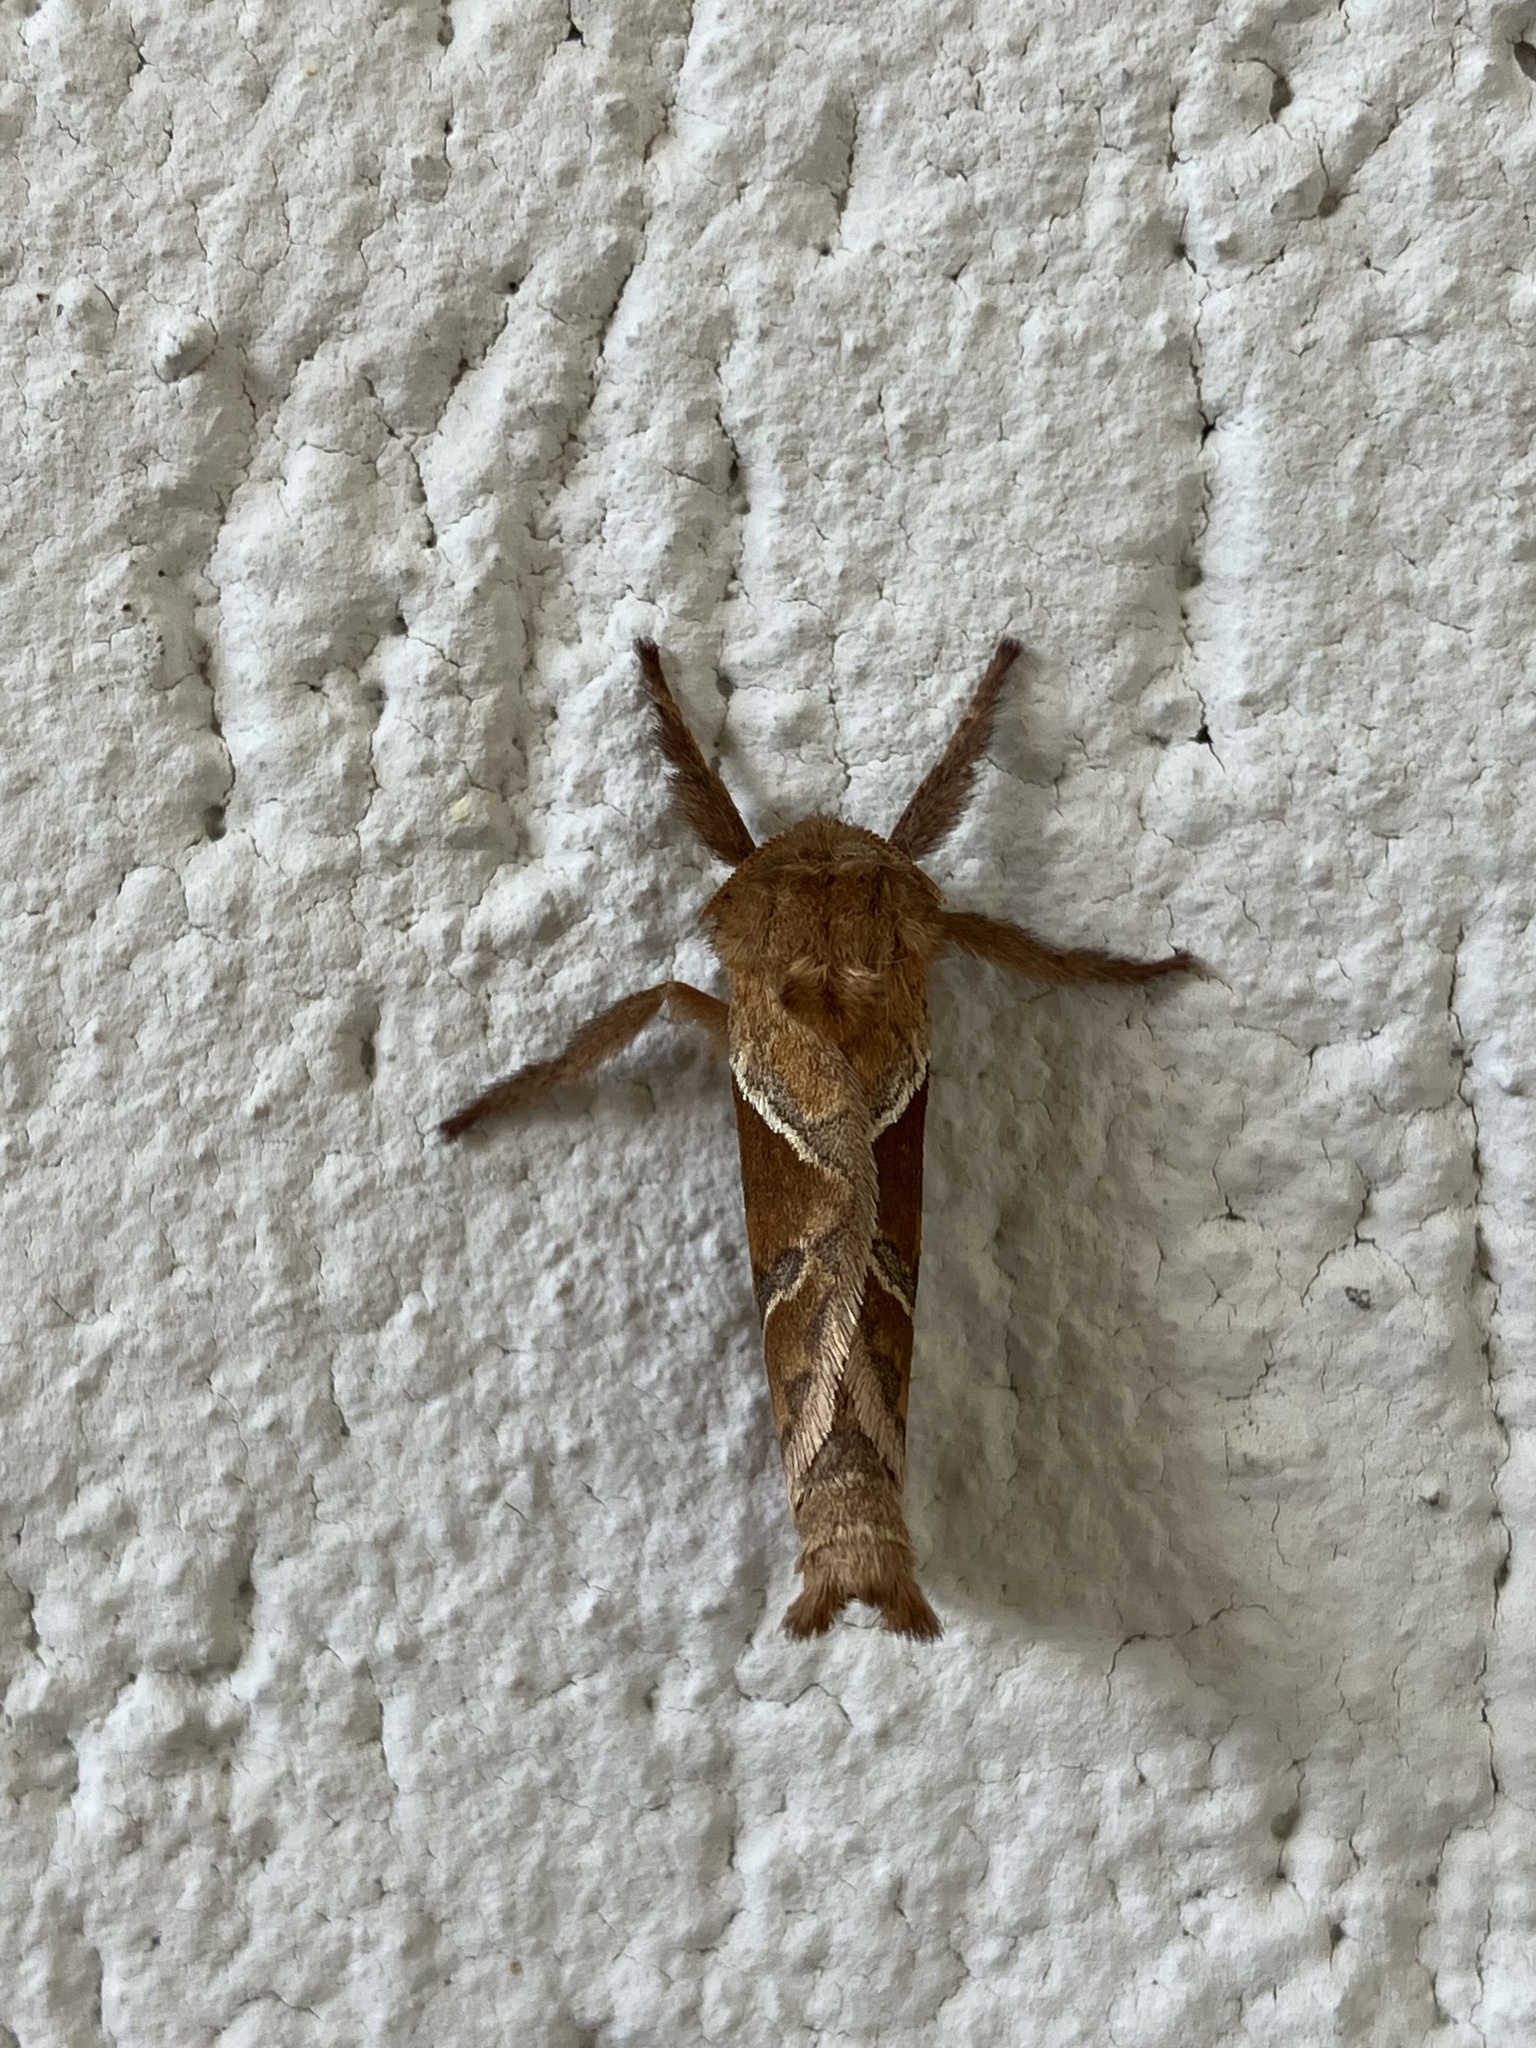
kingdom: Animalia
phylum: Arthropoda
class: Insecta
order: Lepidoptera
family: Hepialidae
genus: Triodia
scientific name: Triodia sylvina
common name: Orange swift
